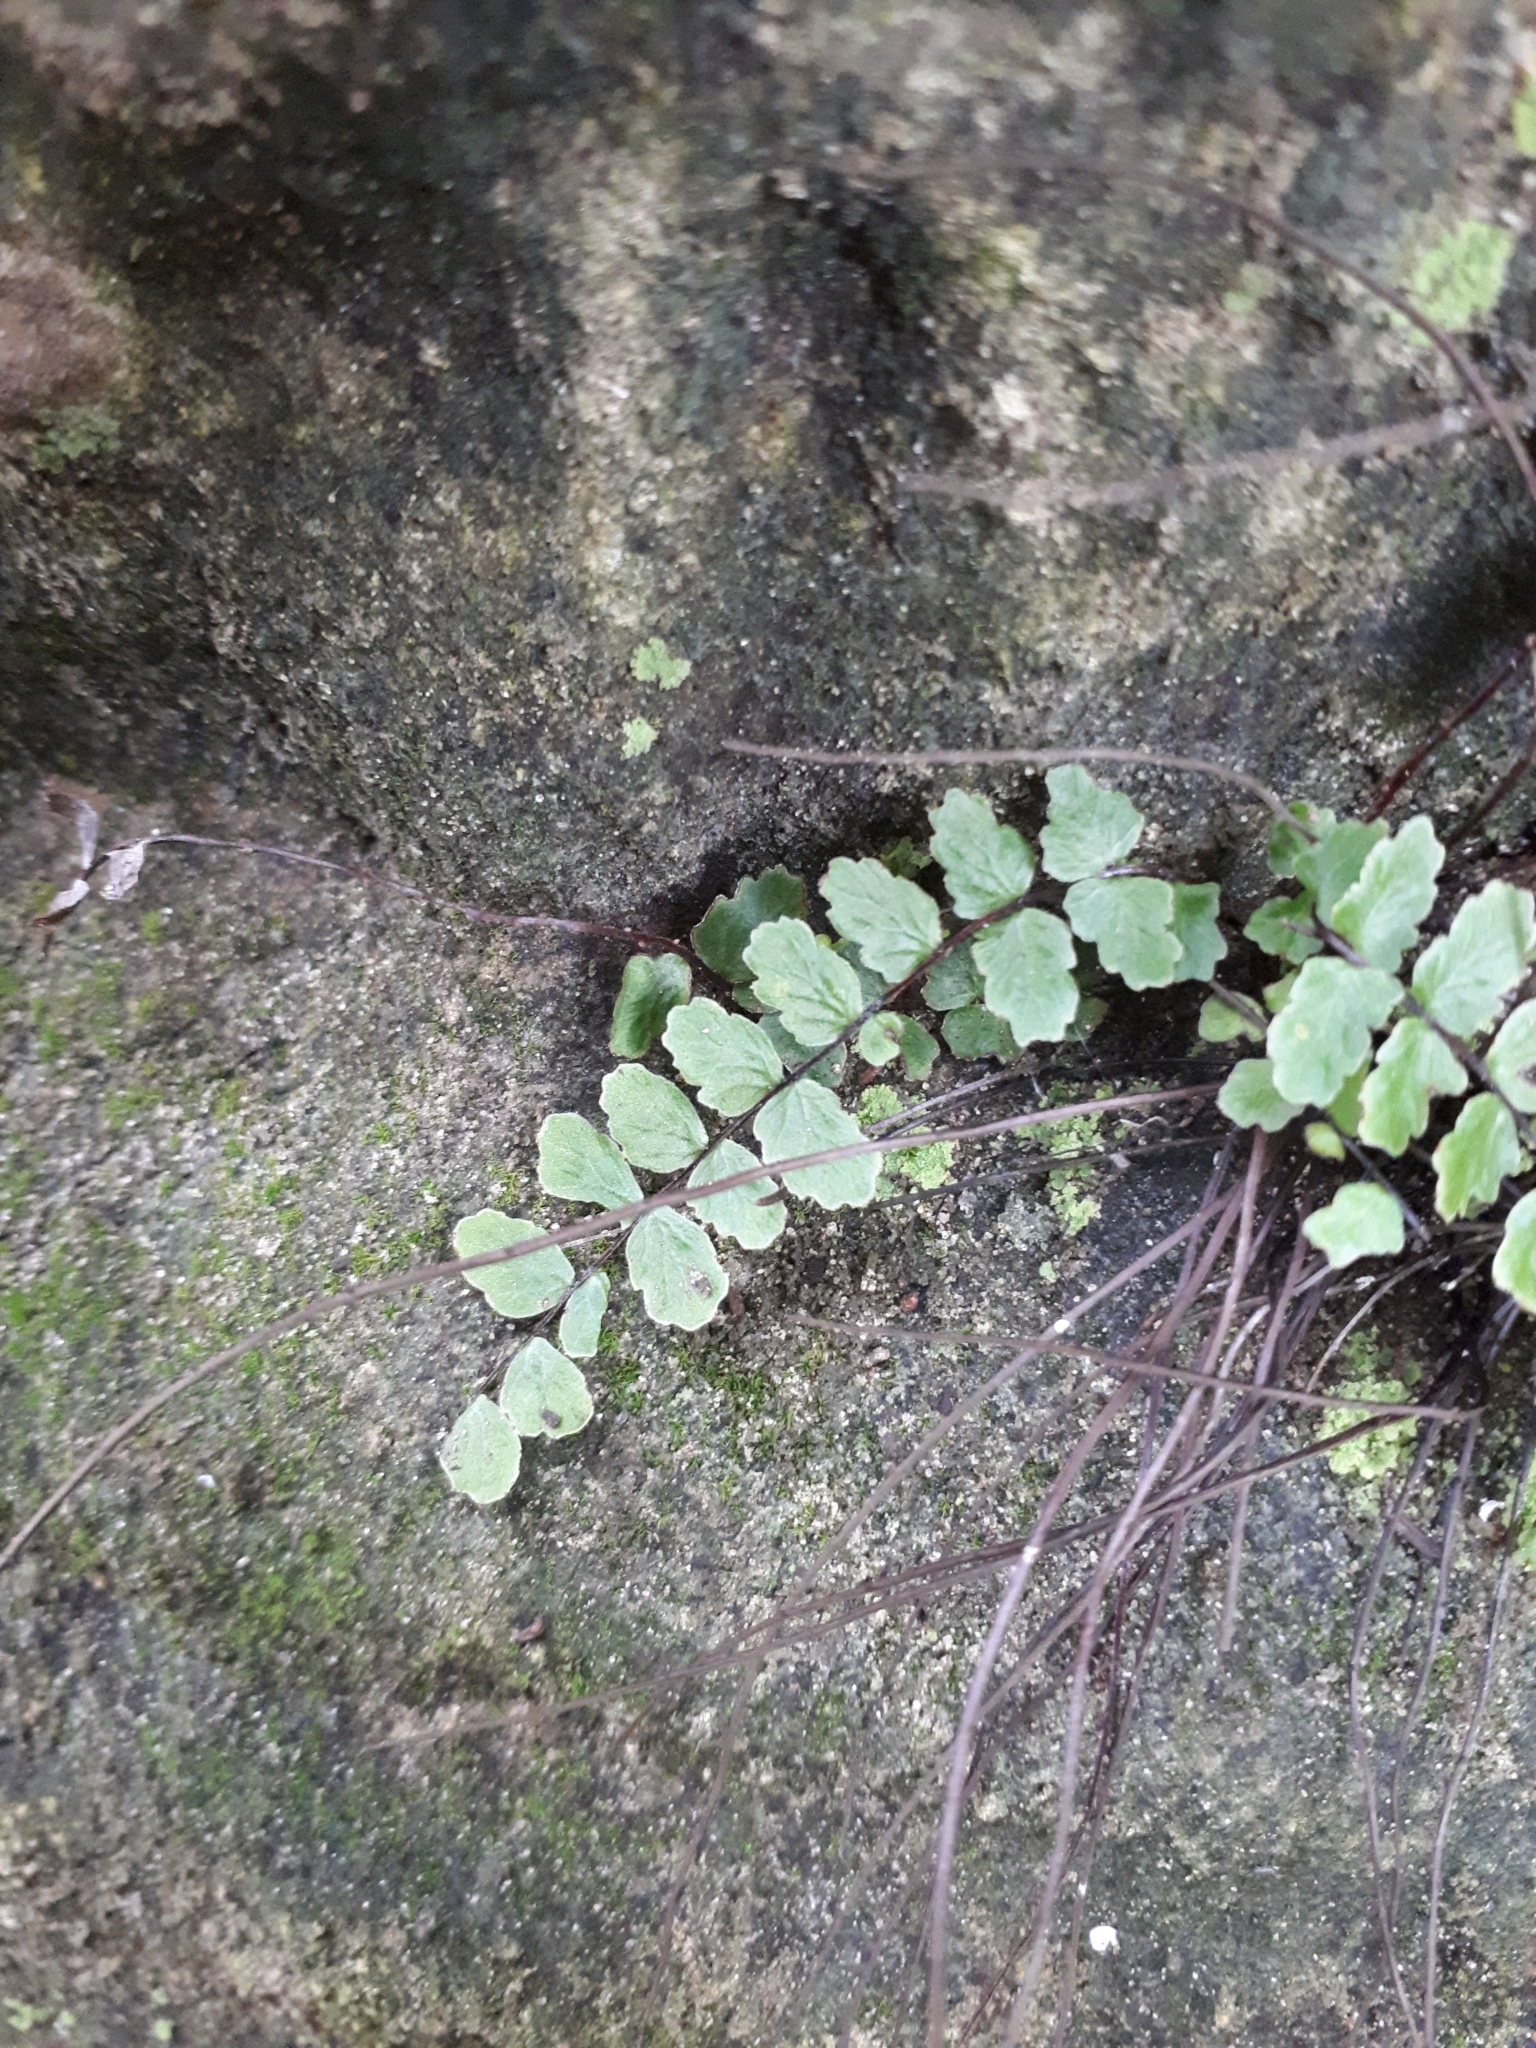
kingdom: Plantae
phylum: Tracheophyta
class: Polypodiopsida
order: Polypodiales
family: Aspleniaceae
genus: Asplenium
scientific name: Asplenium trichomanes
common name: Maidenhair spleenwort
